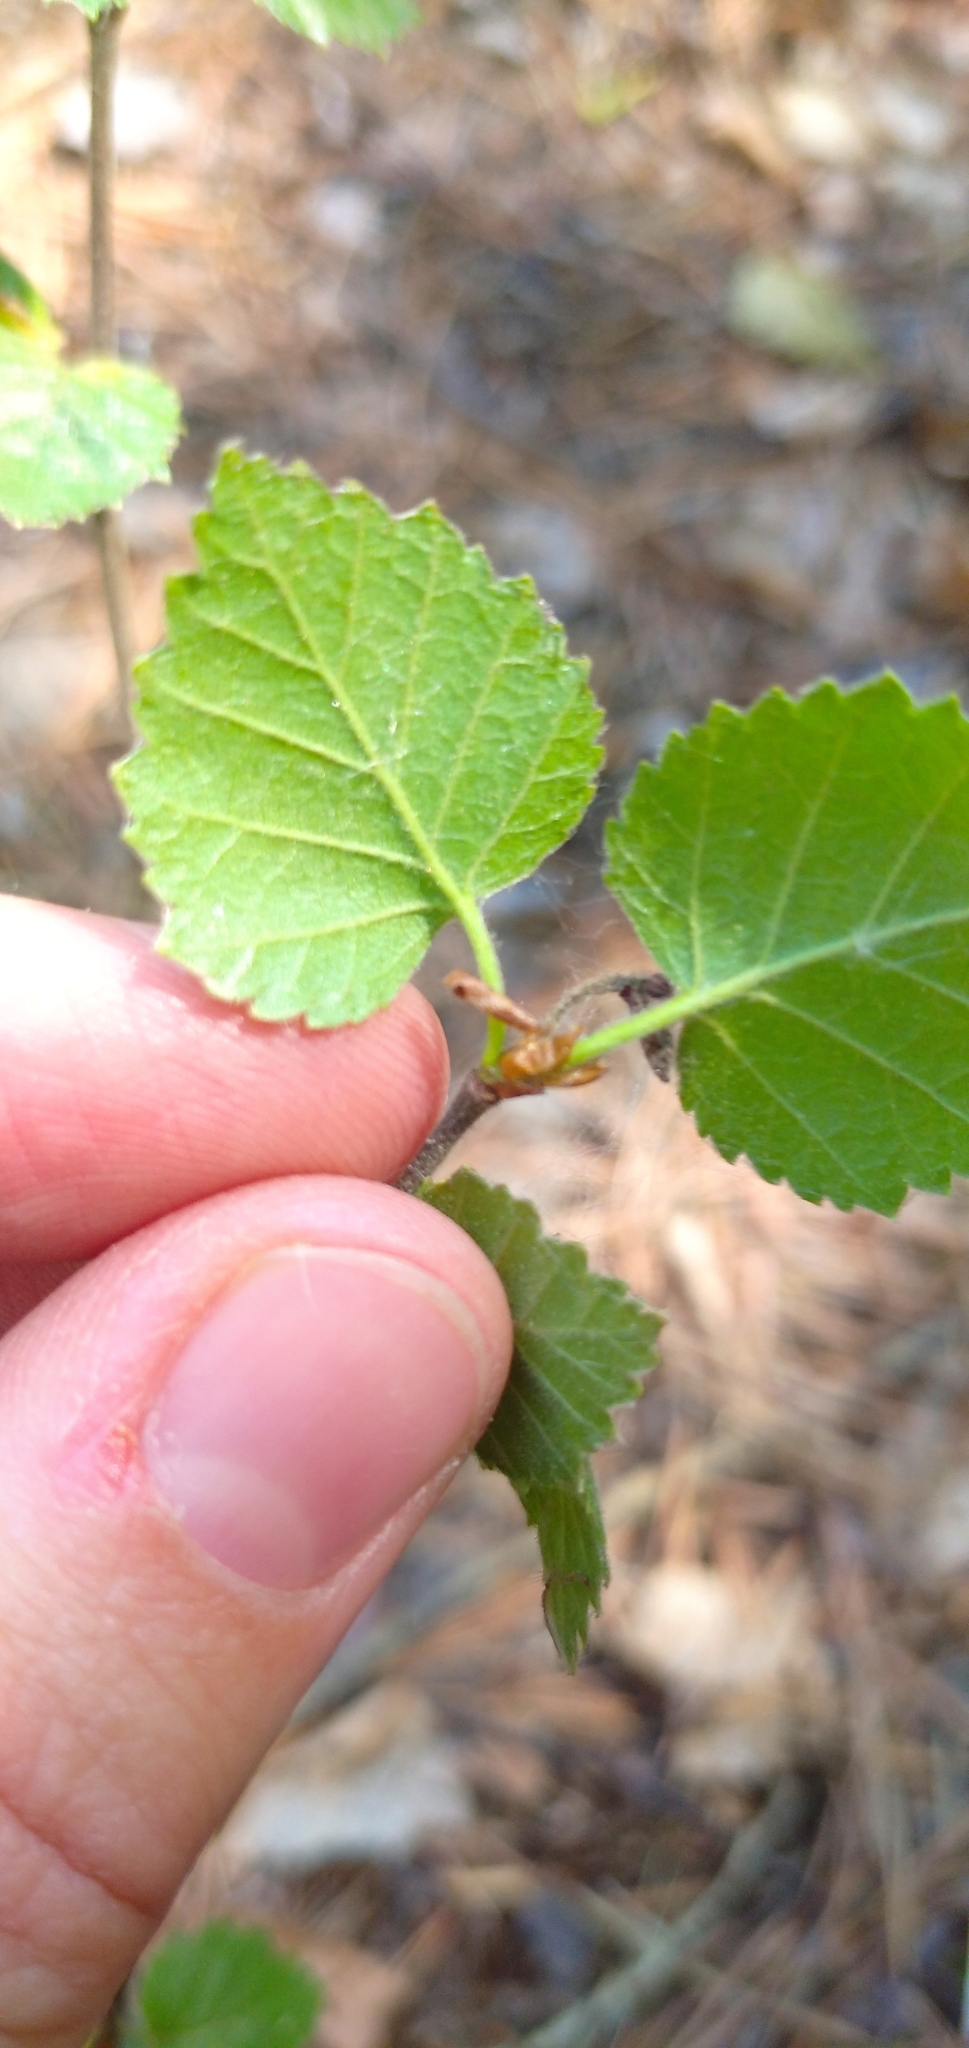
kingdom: Plantae
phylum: Tracheophyta
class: Magnoliopsida
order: Fagales
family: Betulaceae
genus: Betula
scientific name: Betula pubescens
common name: Downy birch
